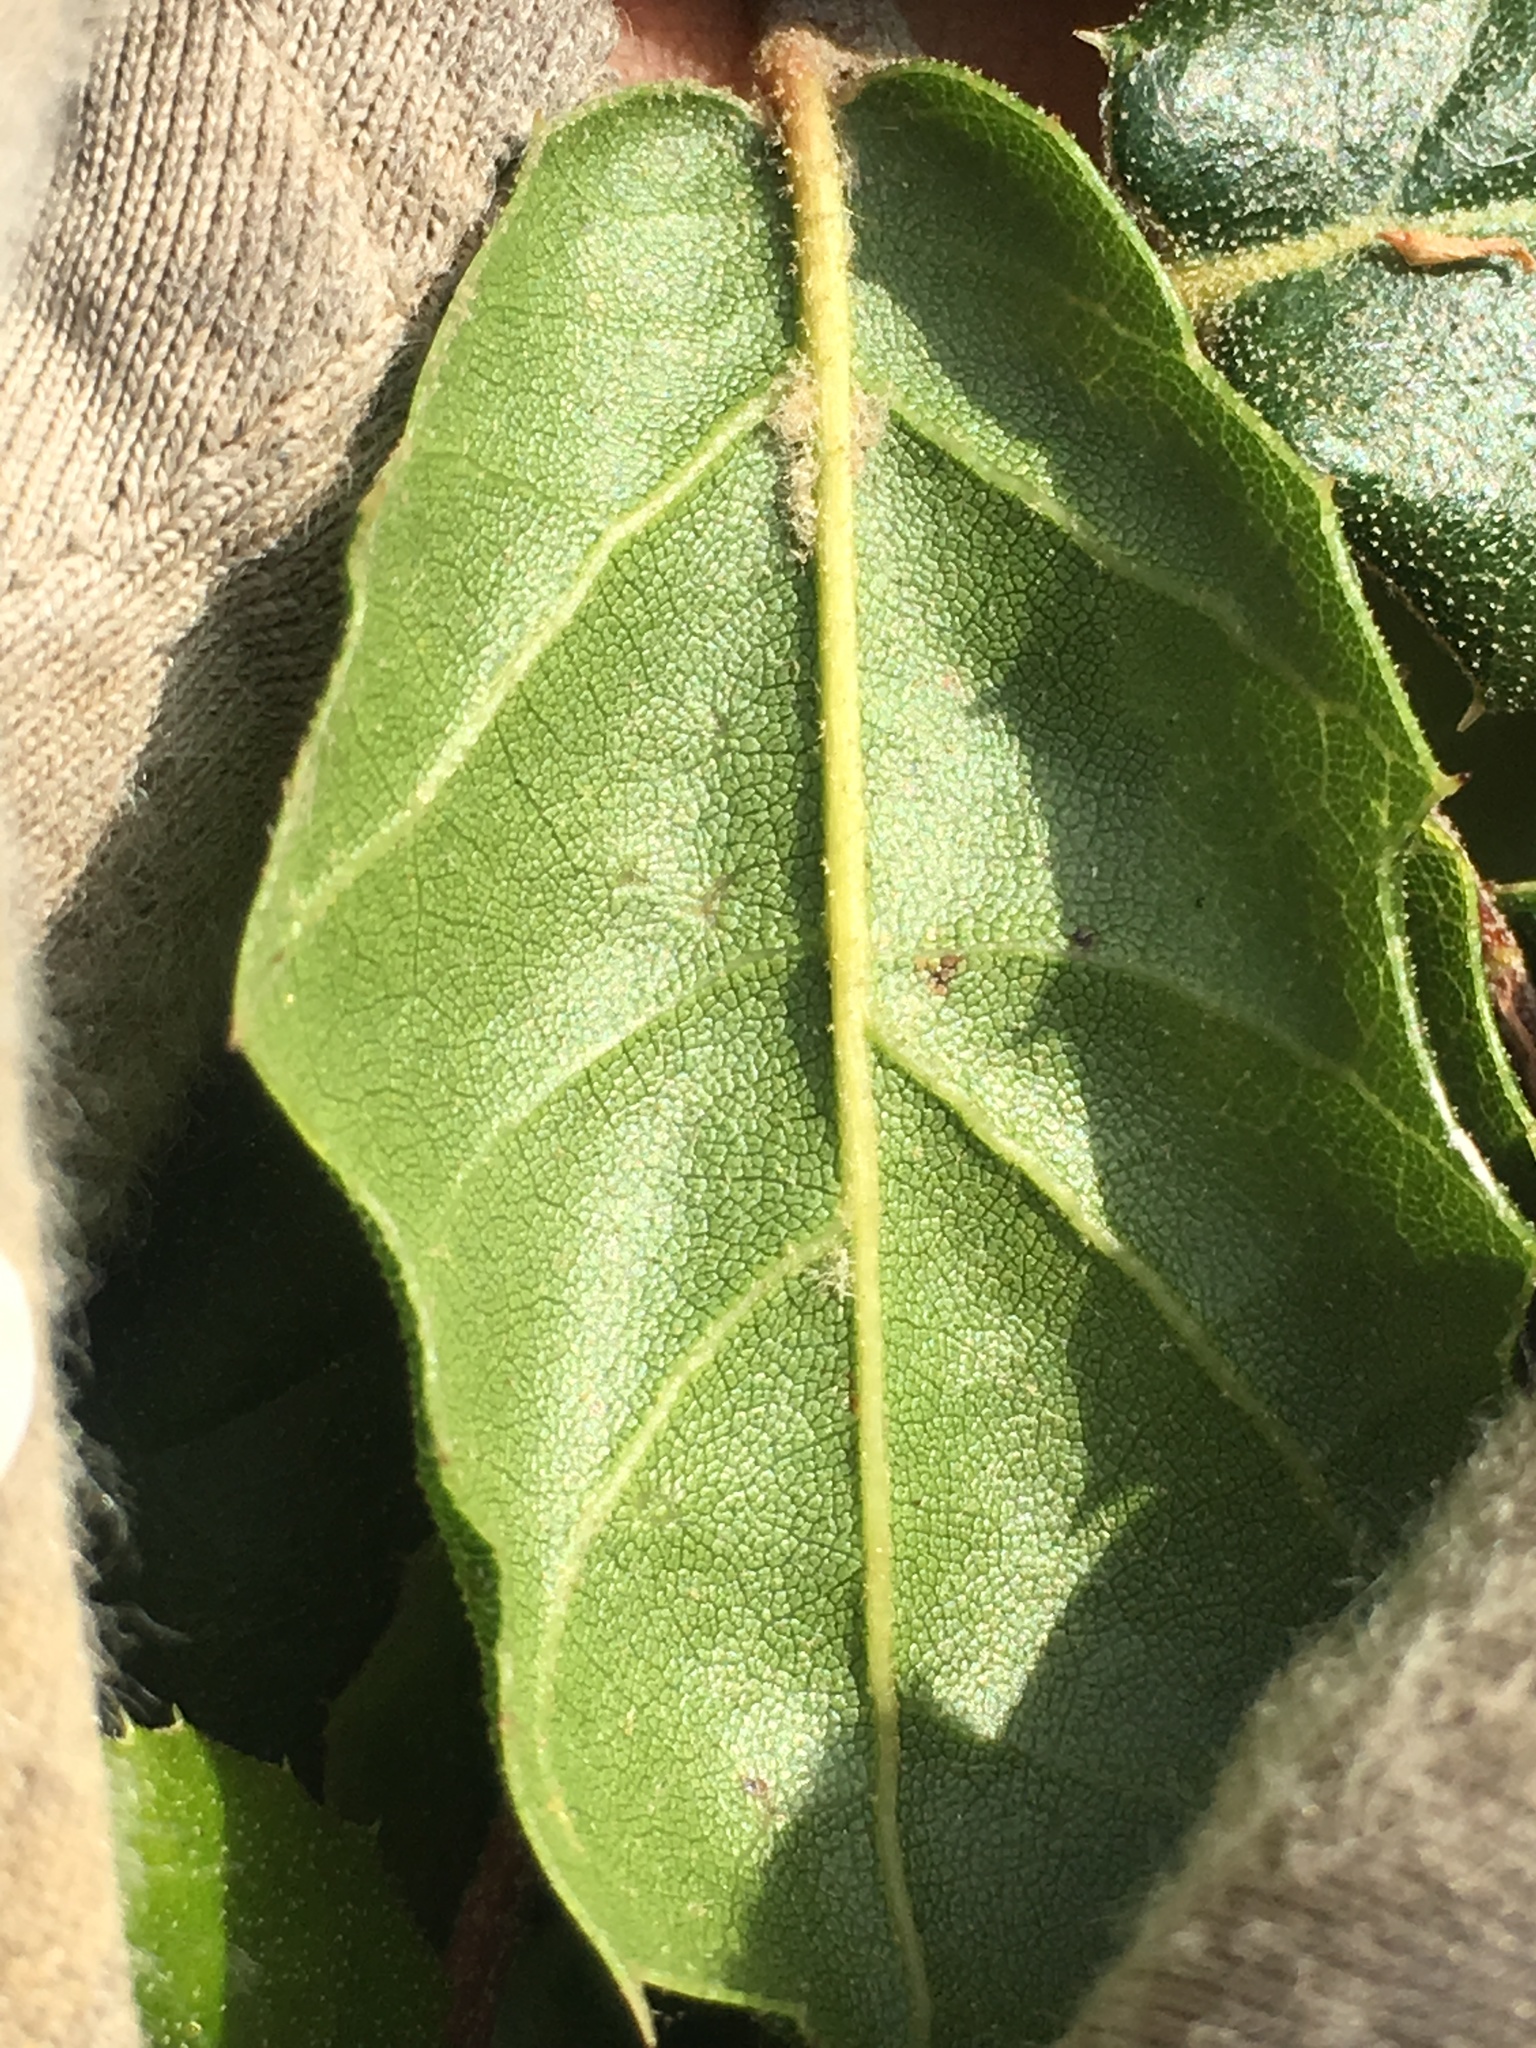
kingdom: Plantae
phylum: Tracheophyta
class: Magnoliopsida
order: Fagales
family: Fagaceae
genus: Quercus
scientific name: Quercus agrifolia
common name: California live oak
